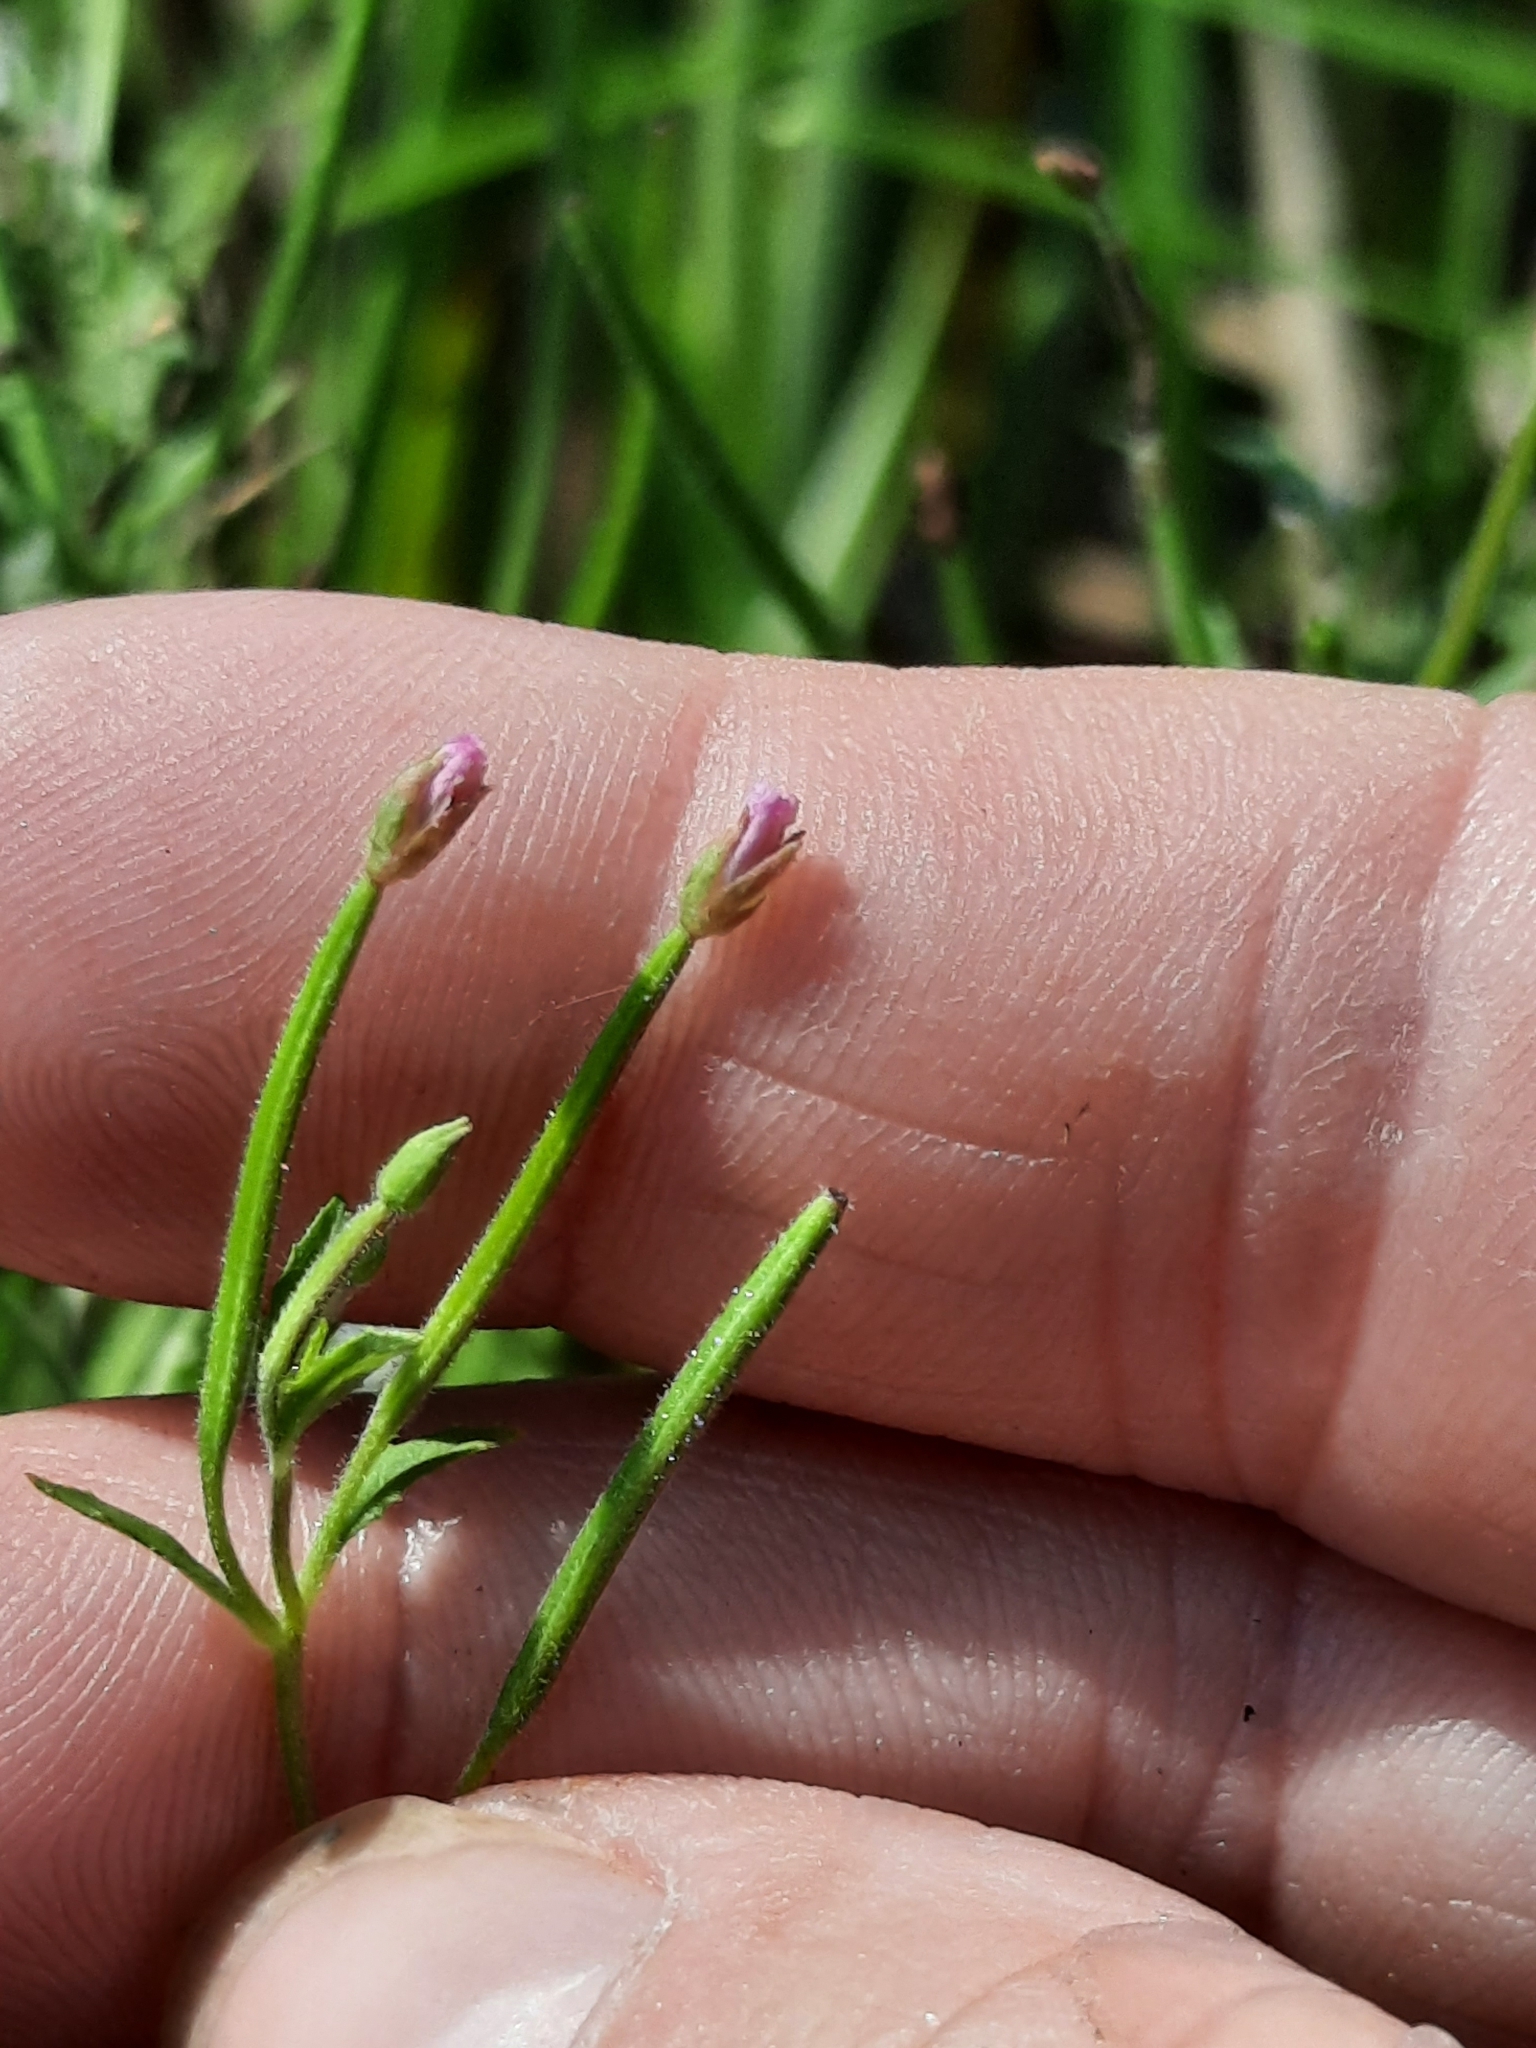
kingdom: Plantae
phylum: Tracheophyta
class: Magnoliopsida
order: Myrtales
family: Onagraceae
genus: Epilobium
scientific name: Epilobium coloratum
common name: Bronze willowherb
